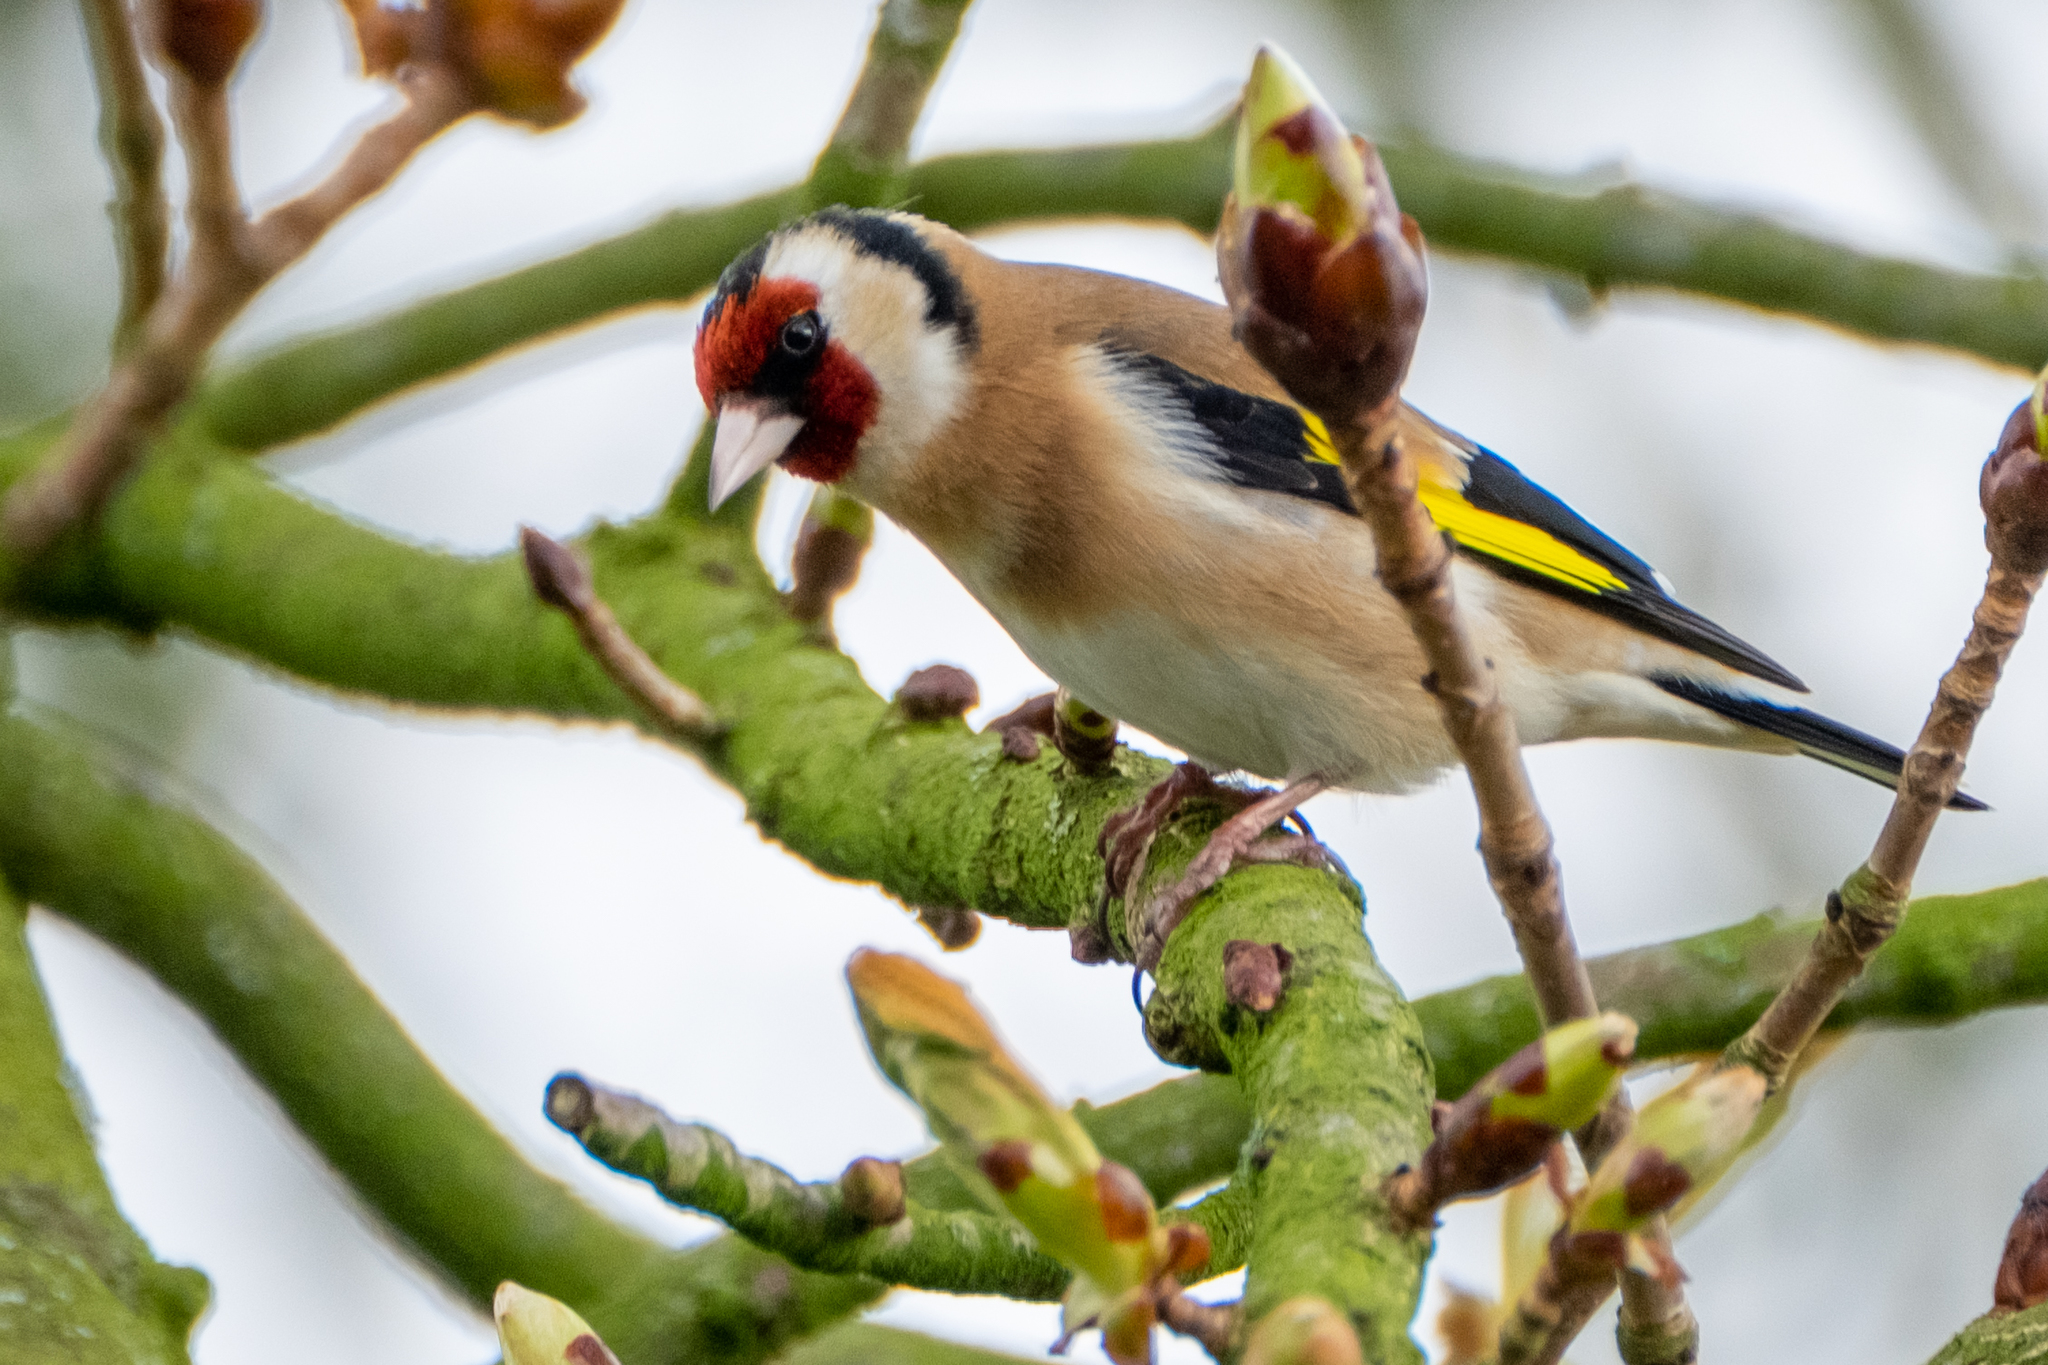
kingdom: Animalia
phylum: Chordata
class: Aves
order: Passeriformes
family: Fringillidae
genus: Carduelis
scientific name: Carduelis carduelis
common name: European goldfinch
